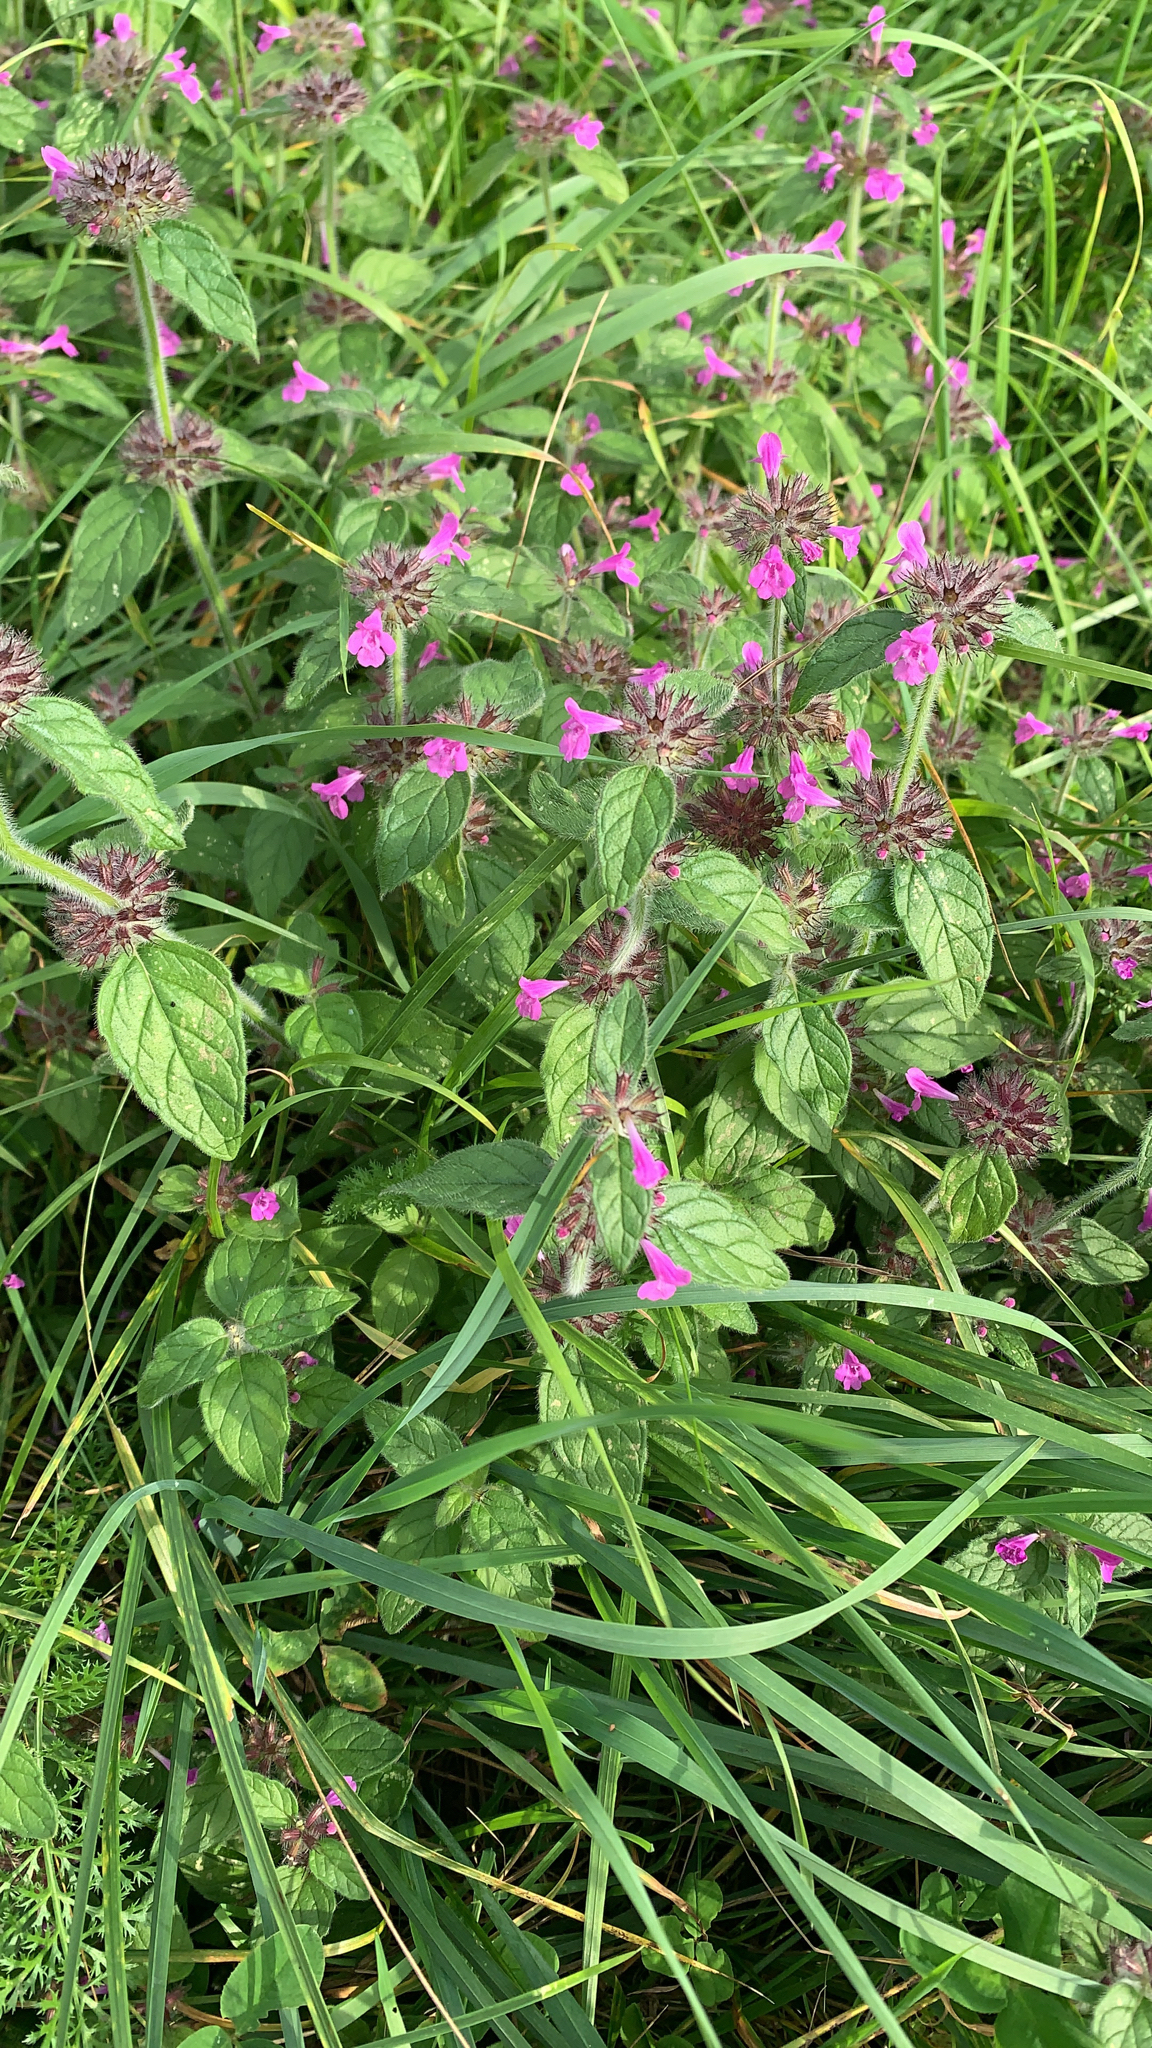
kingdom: Plantae
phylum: Tracheophyta
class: Magnoliopsida
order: Lamiales
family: Lamiaceae
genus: Clinopodium
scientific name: Clinopodium vulgare
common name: Wild basil
